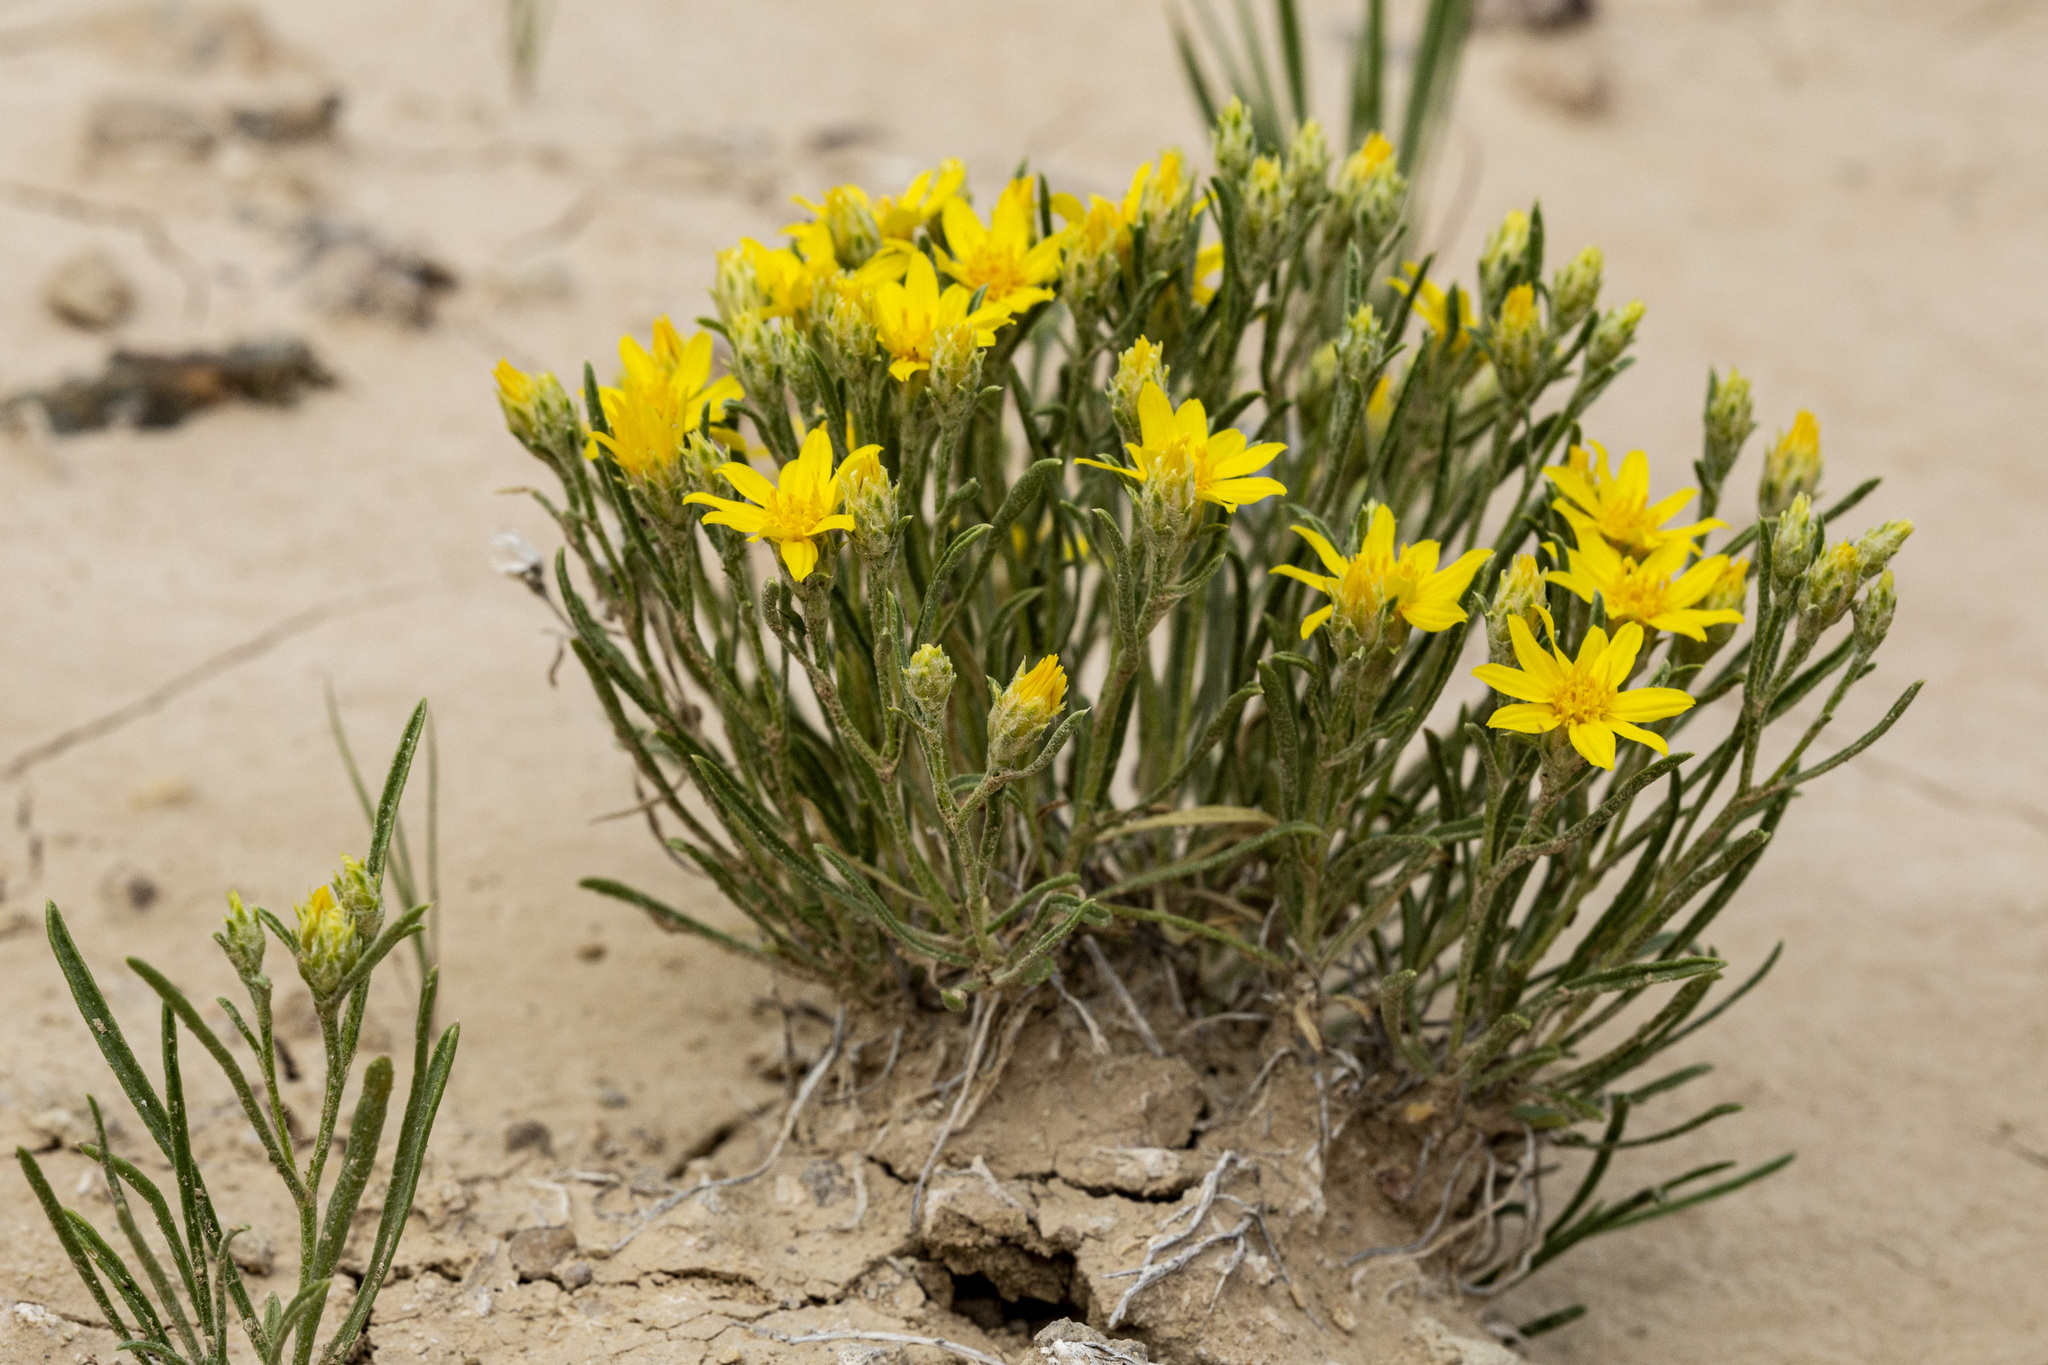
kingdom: Plantae
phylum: Tracheophyta
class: Magnoliopsida
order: Asterales
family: Asteraceae
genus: Oonopsis
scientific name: Oonopsis multicaulis
